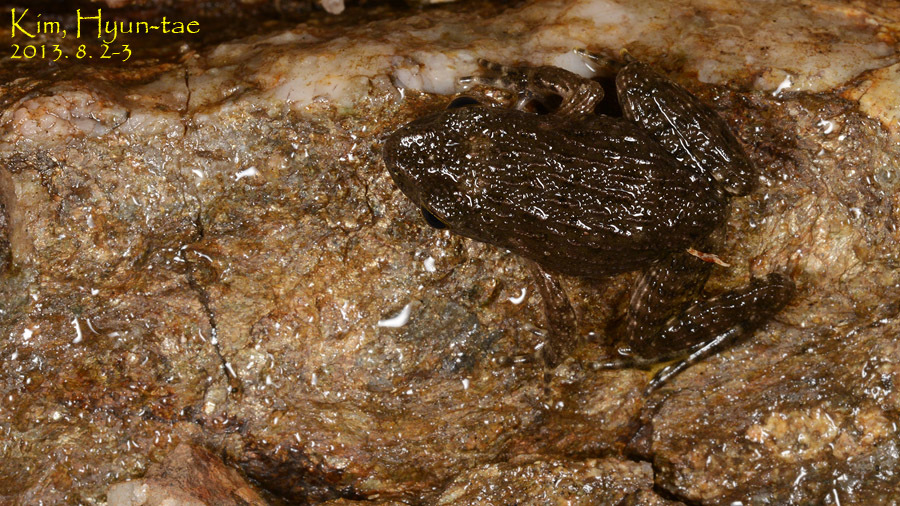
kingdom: Animalia
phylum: Chordata
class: Amphibia
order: Anura
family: Ranidae
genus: Glandirana
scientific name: Glandirana emeljanovi
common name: Northeast china rough-skinned frog
